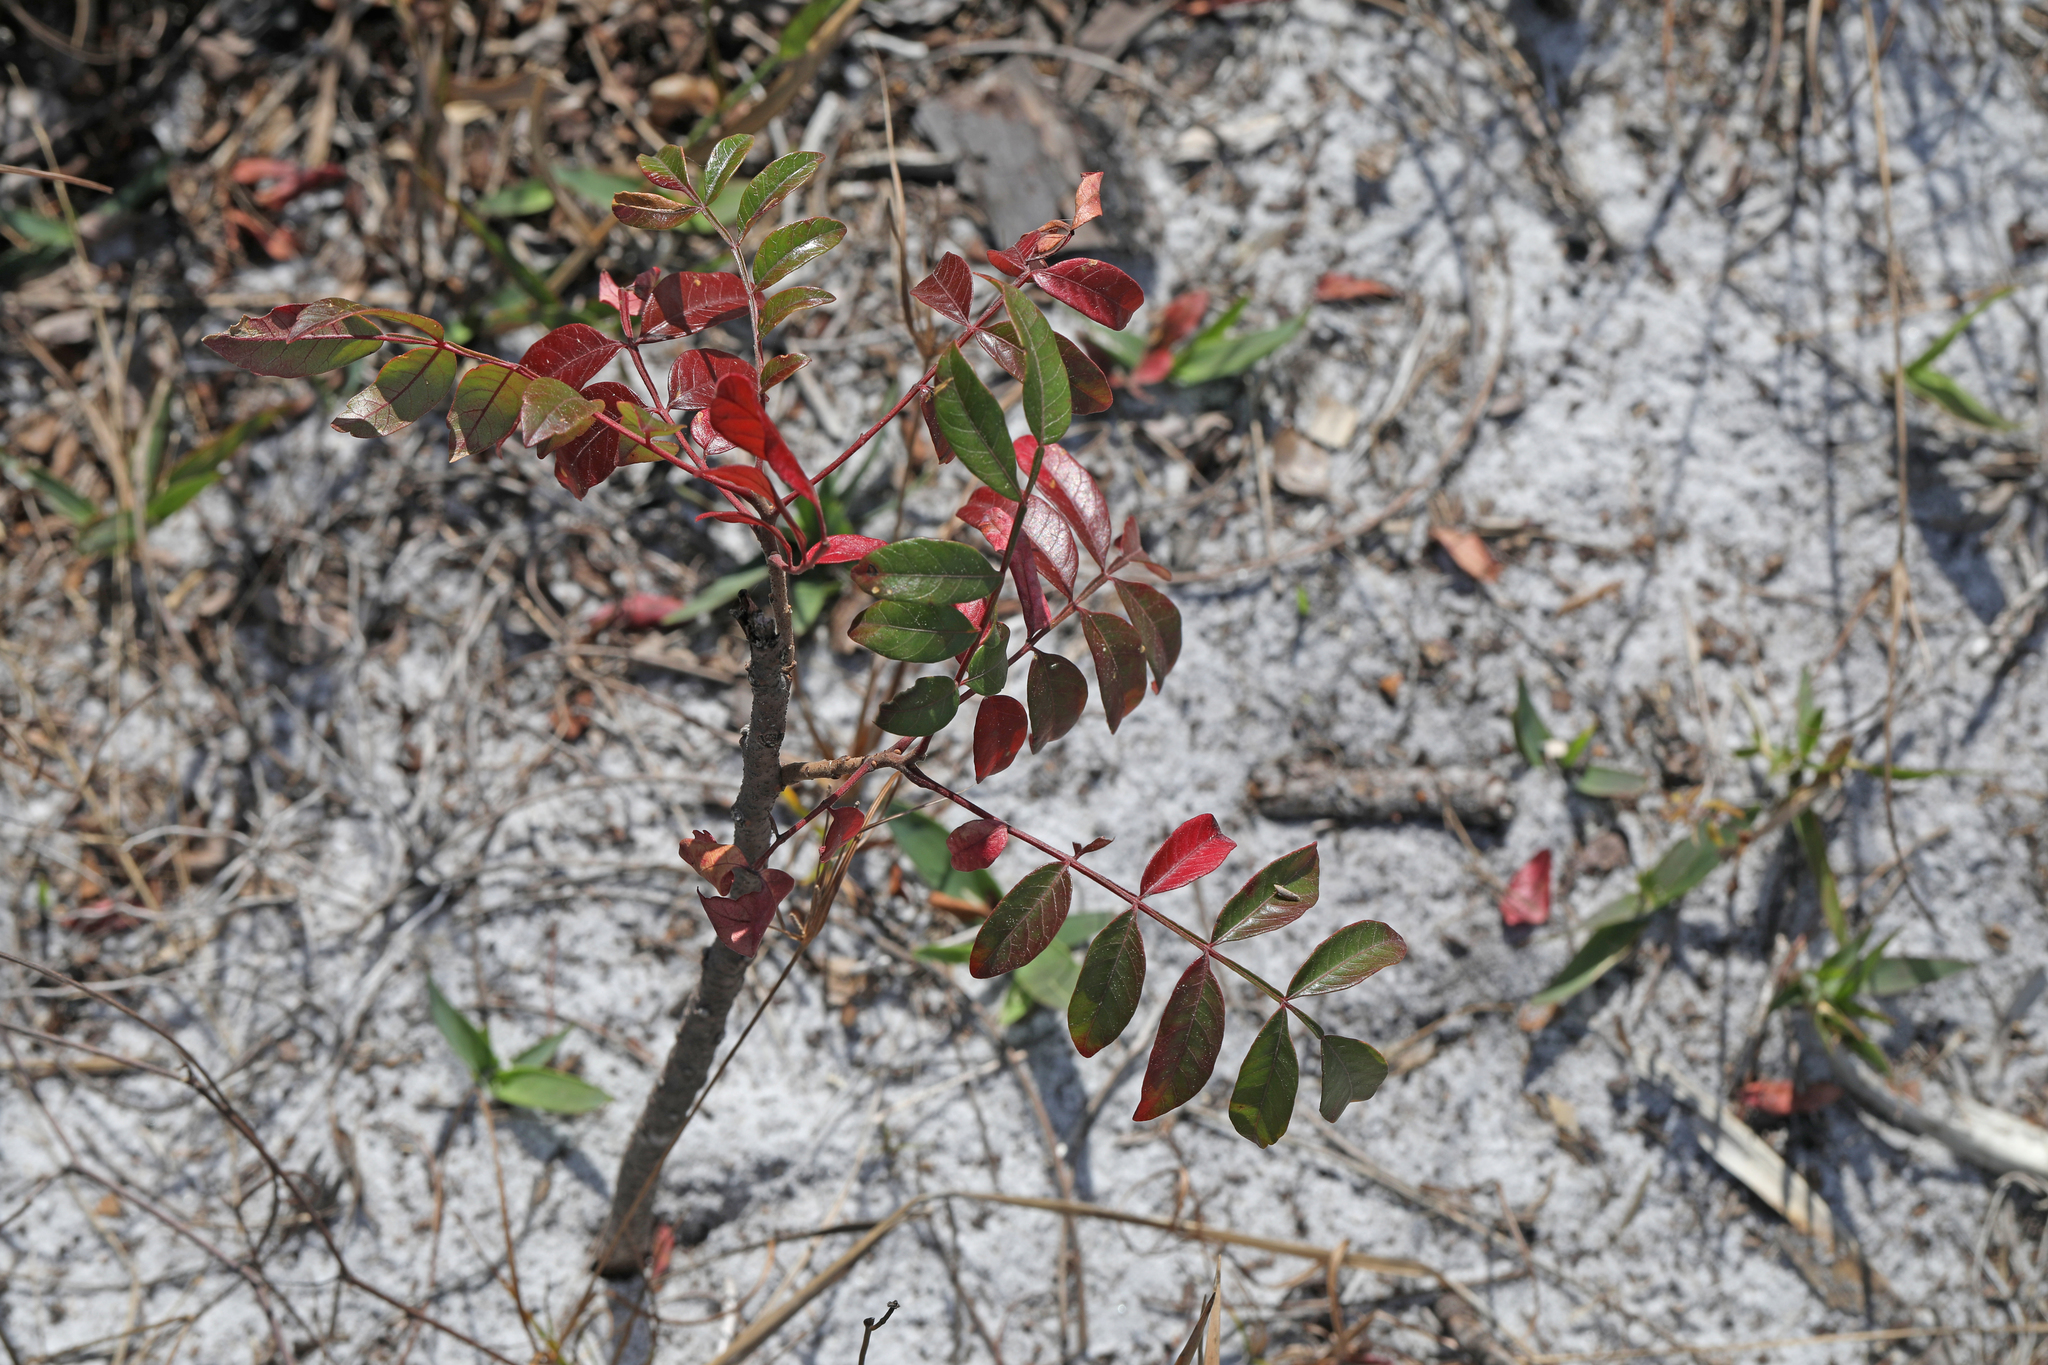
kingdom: Plantae
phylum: Tracheophyta
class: Magnoliopsida
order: Sapindales
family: Anacardiaceae
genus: Rhus
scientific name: Rhus copallina
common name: Shining sumac
